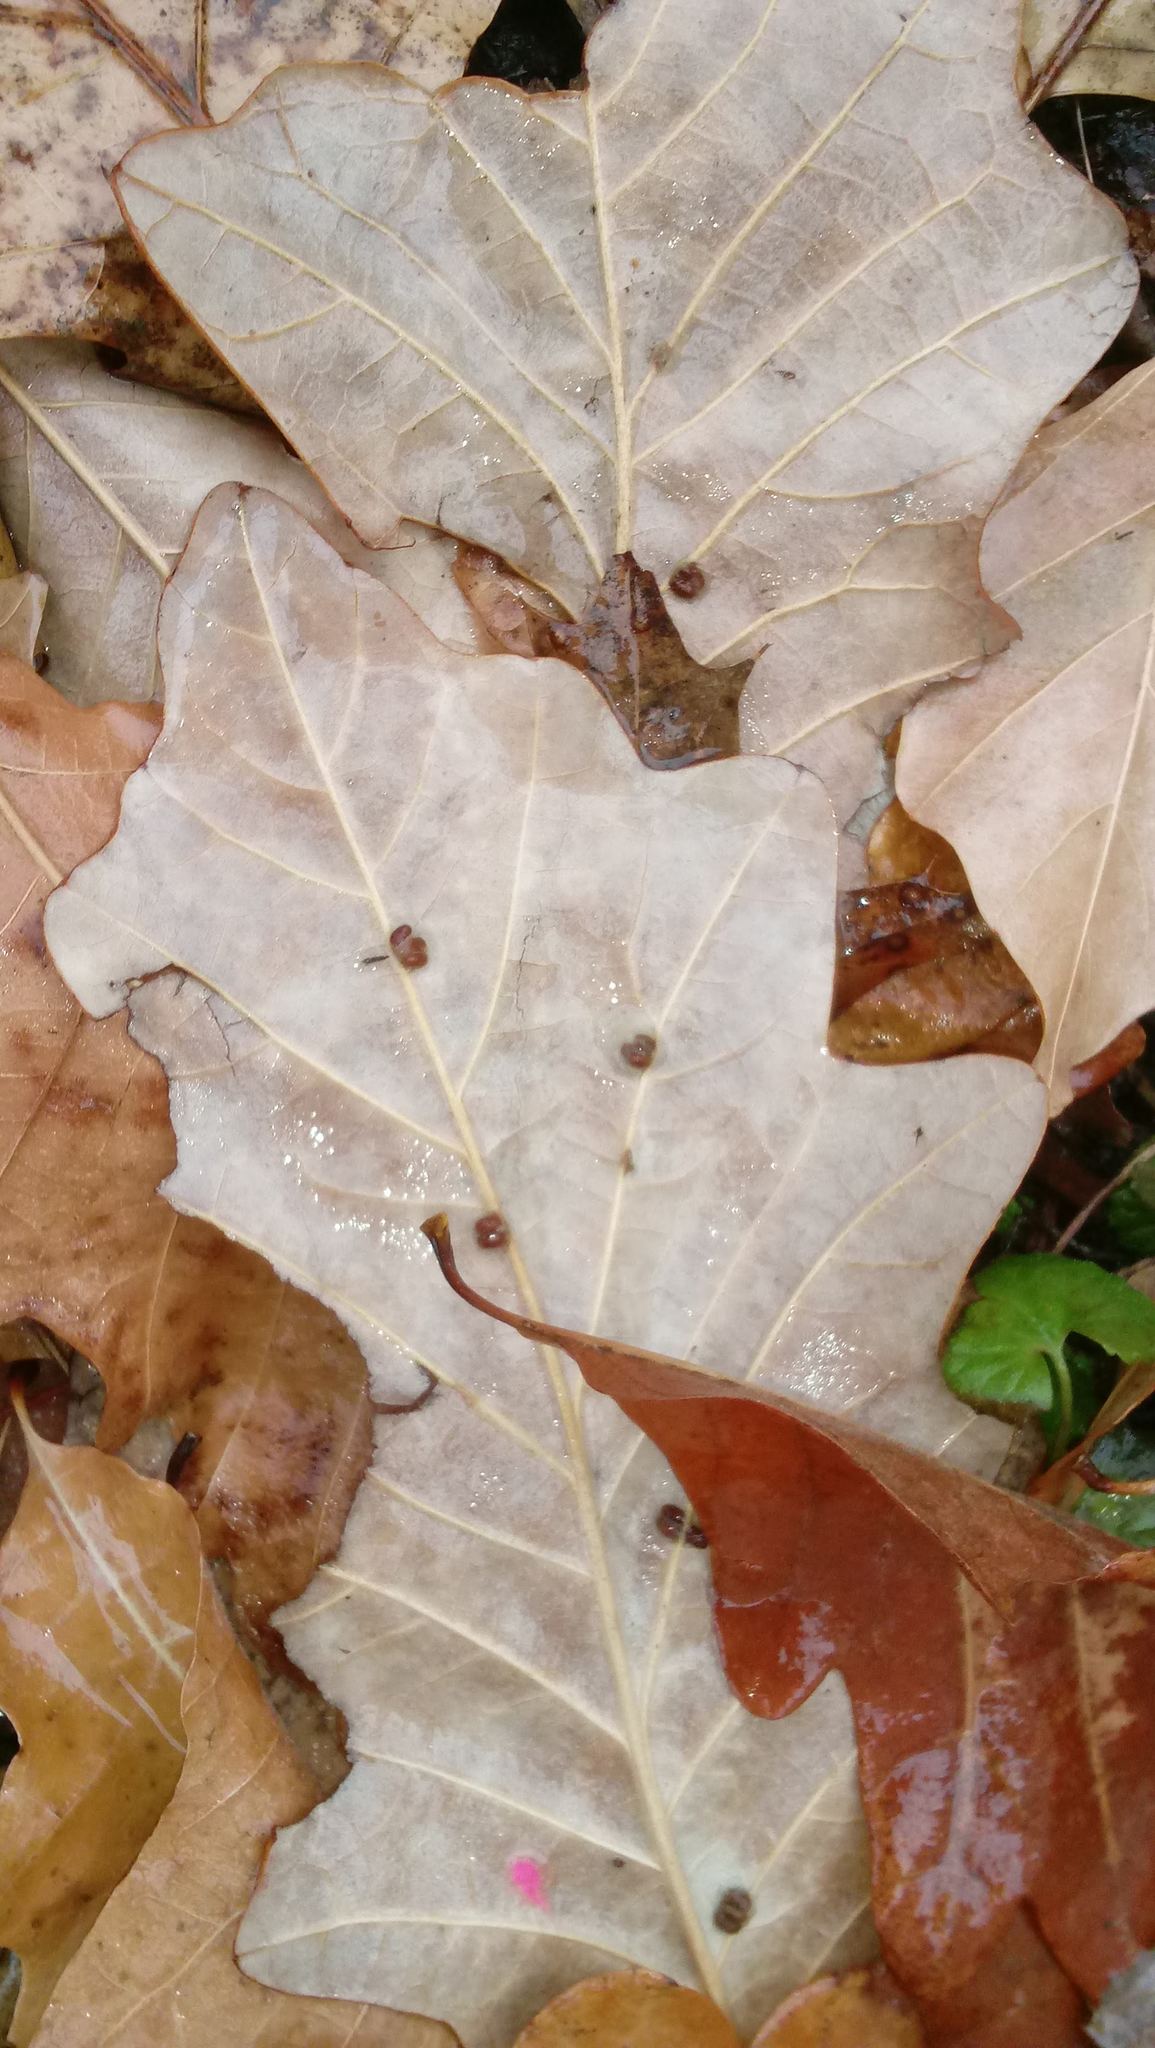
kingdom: Animalia
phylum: Arthropoda
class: Insecta
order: Hymenoptera
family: Cynipidae
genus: Andricus
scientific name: Andricus Druon ignotum
